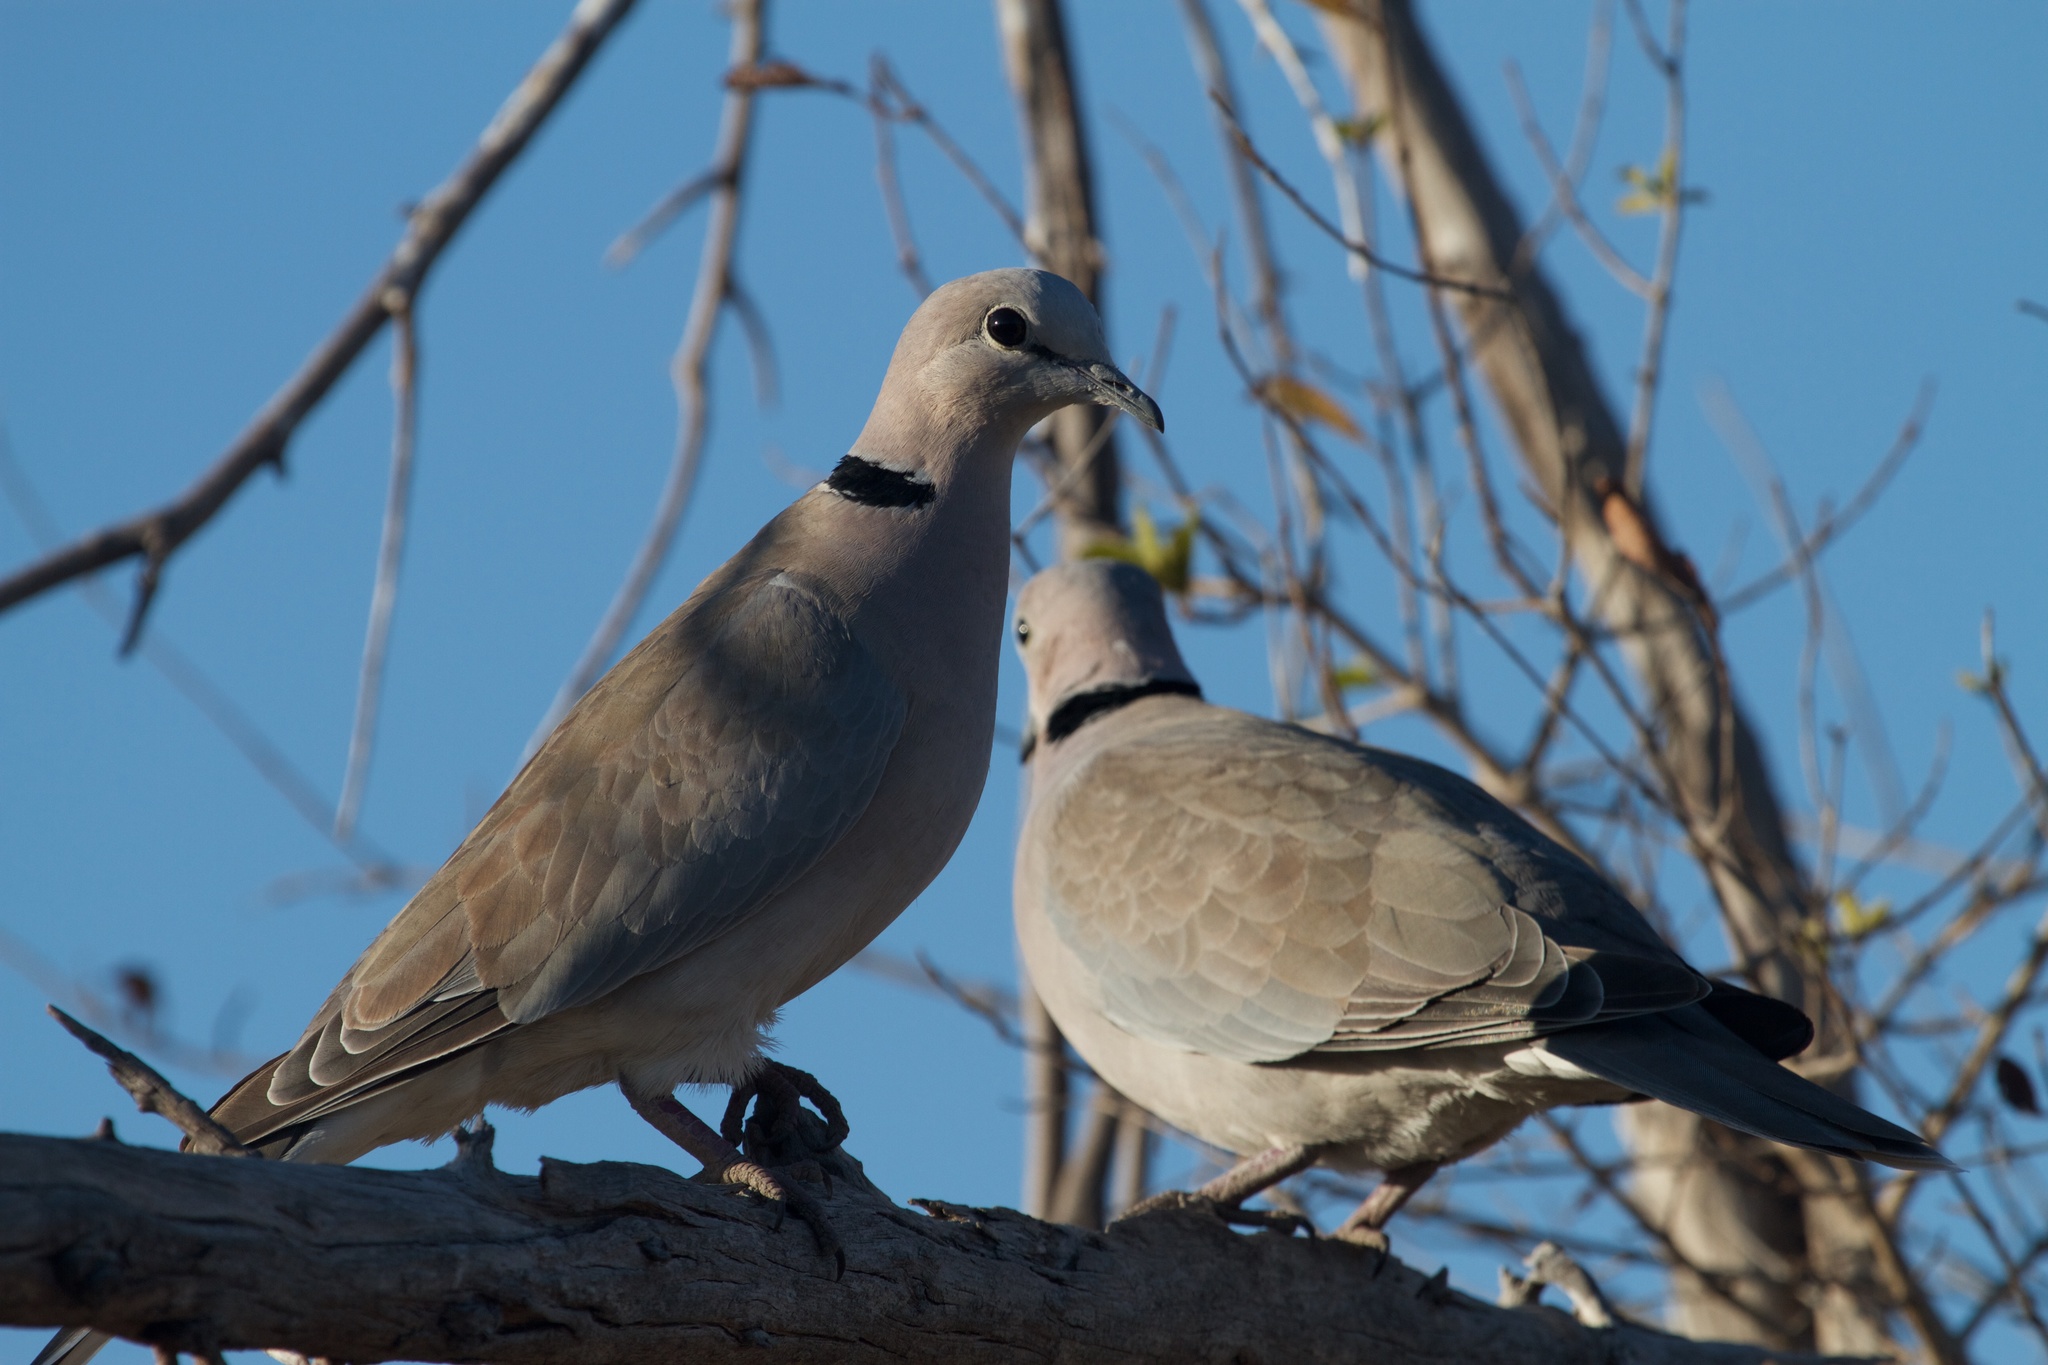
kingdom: Animalia
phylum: Chordata
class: Aves
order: Columbiformes
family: Columbidae
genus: Streptopelia
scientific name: Streptopelia capicola
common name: Ring-necked dove
